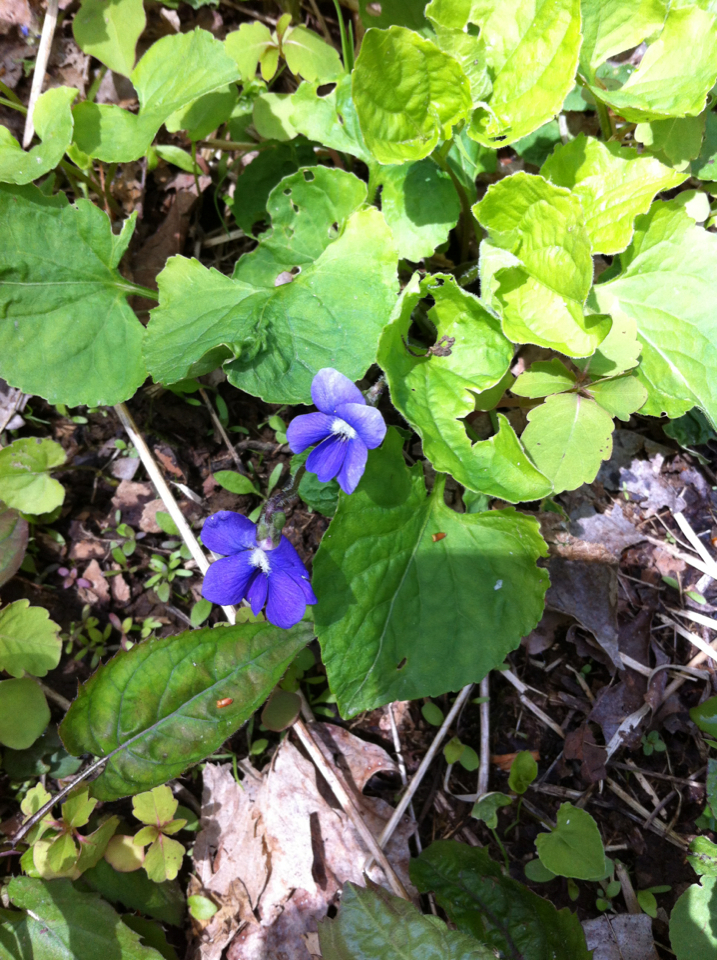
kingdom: Plantae
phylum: Tracheophyta
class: Magnoliopsida
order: Malpighiales
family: Violaceae
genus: Viola
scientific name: Viola sororia
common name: Dooryard violet
